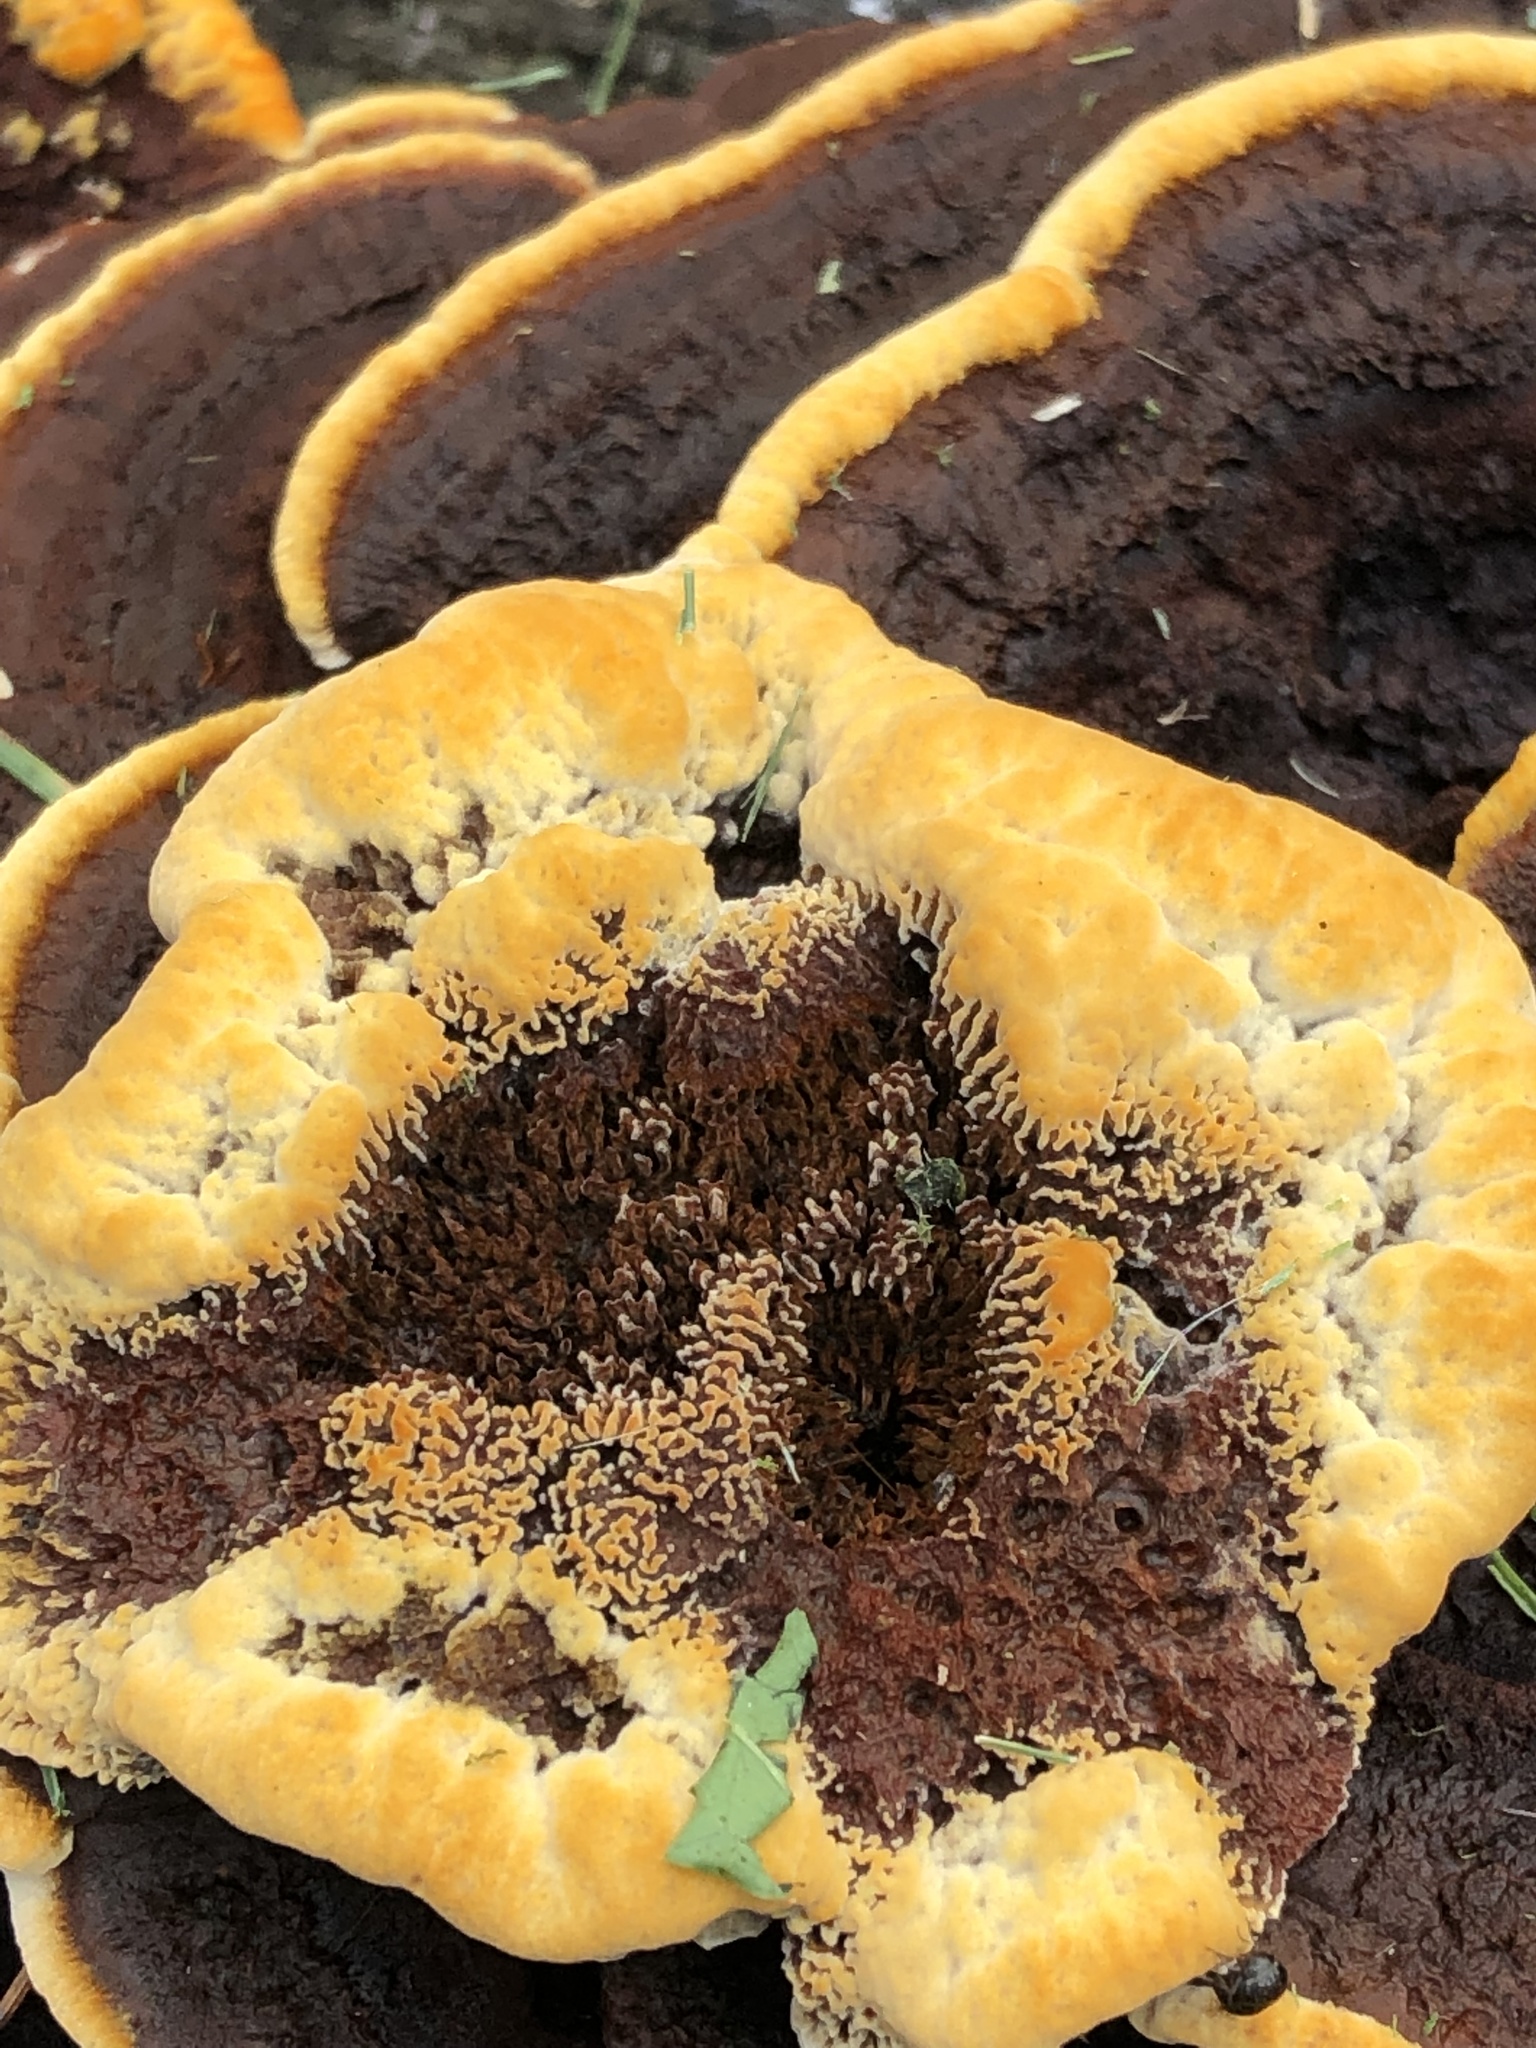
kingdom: Fungi
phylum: Basidiomycota
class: Agaricomycetes
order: Polyporales
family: Laetiporaceae
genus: Phaeolus
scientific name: Phaeolus schweinitzii
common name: Dyer's mazegill
